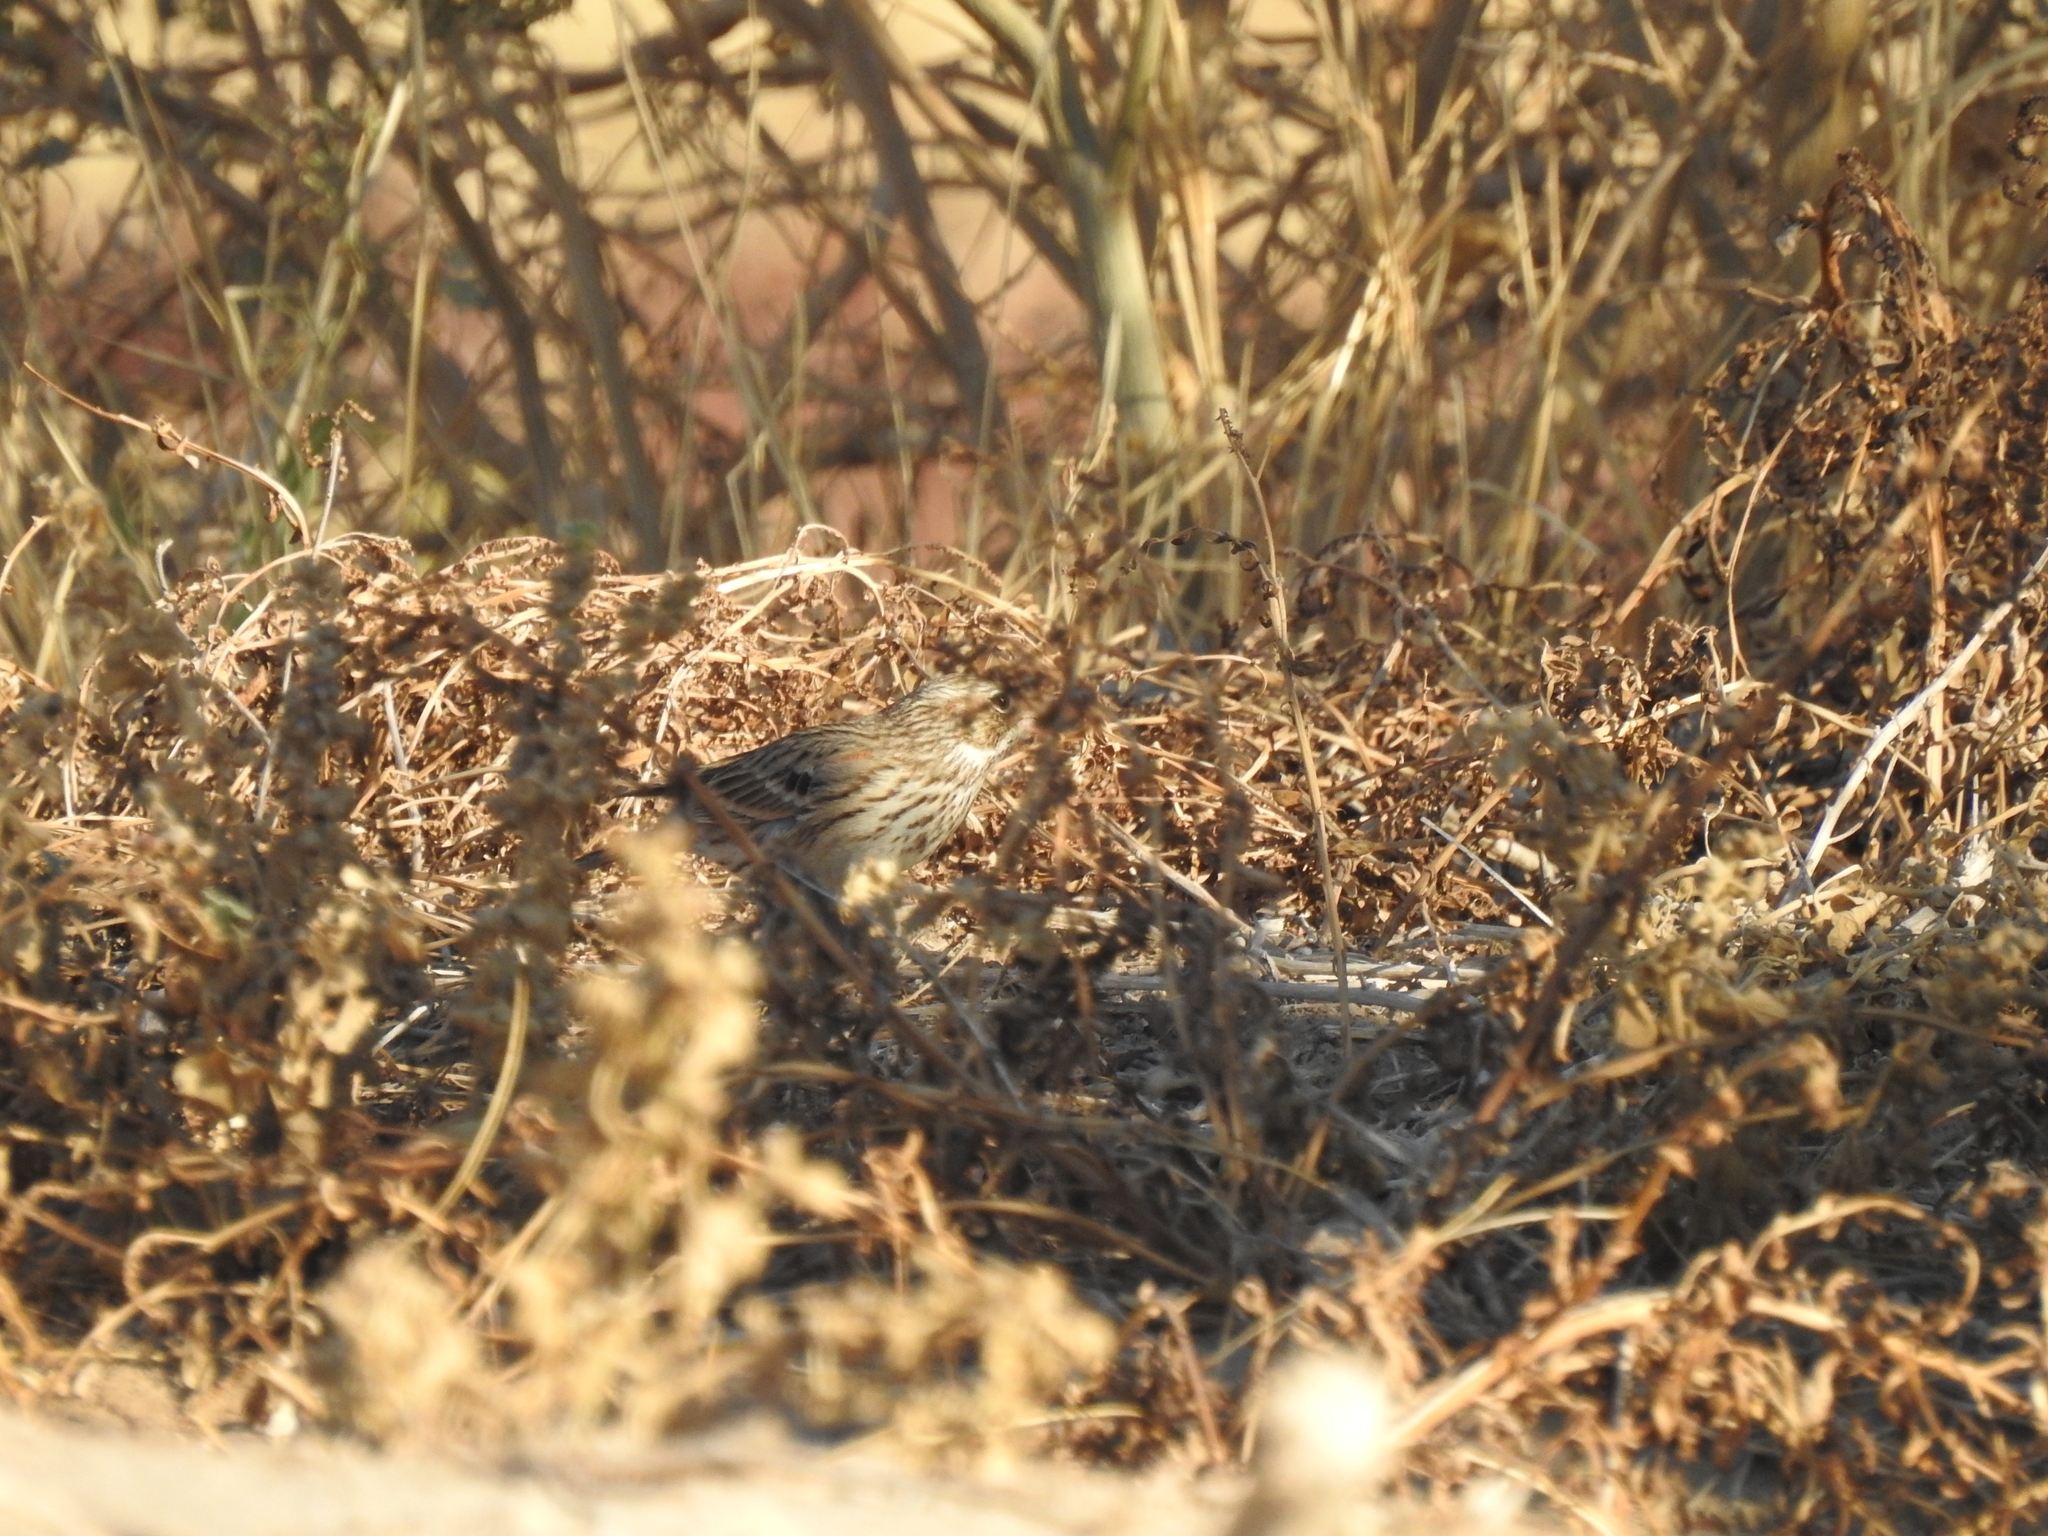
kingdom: Animalia
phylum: Chordata
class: Aves
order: Passeriformes
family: Passerellidae
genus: Pooecetes
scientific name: Pooecetes gramineus
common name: Vesper sparrow
